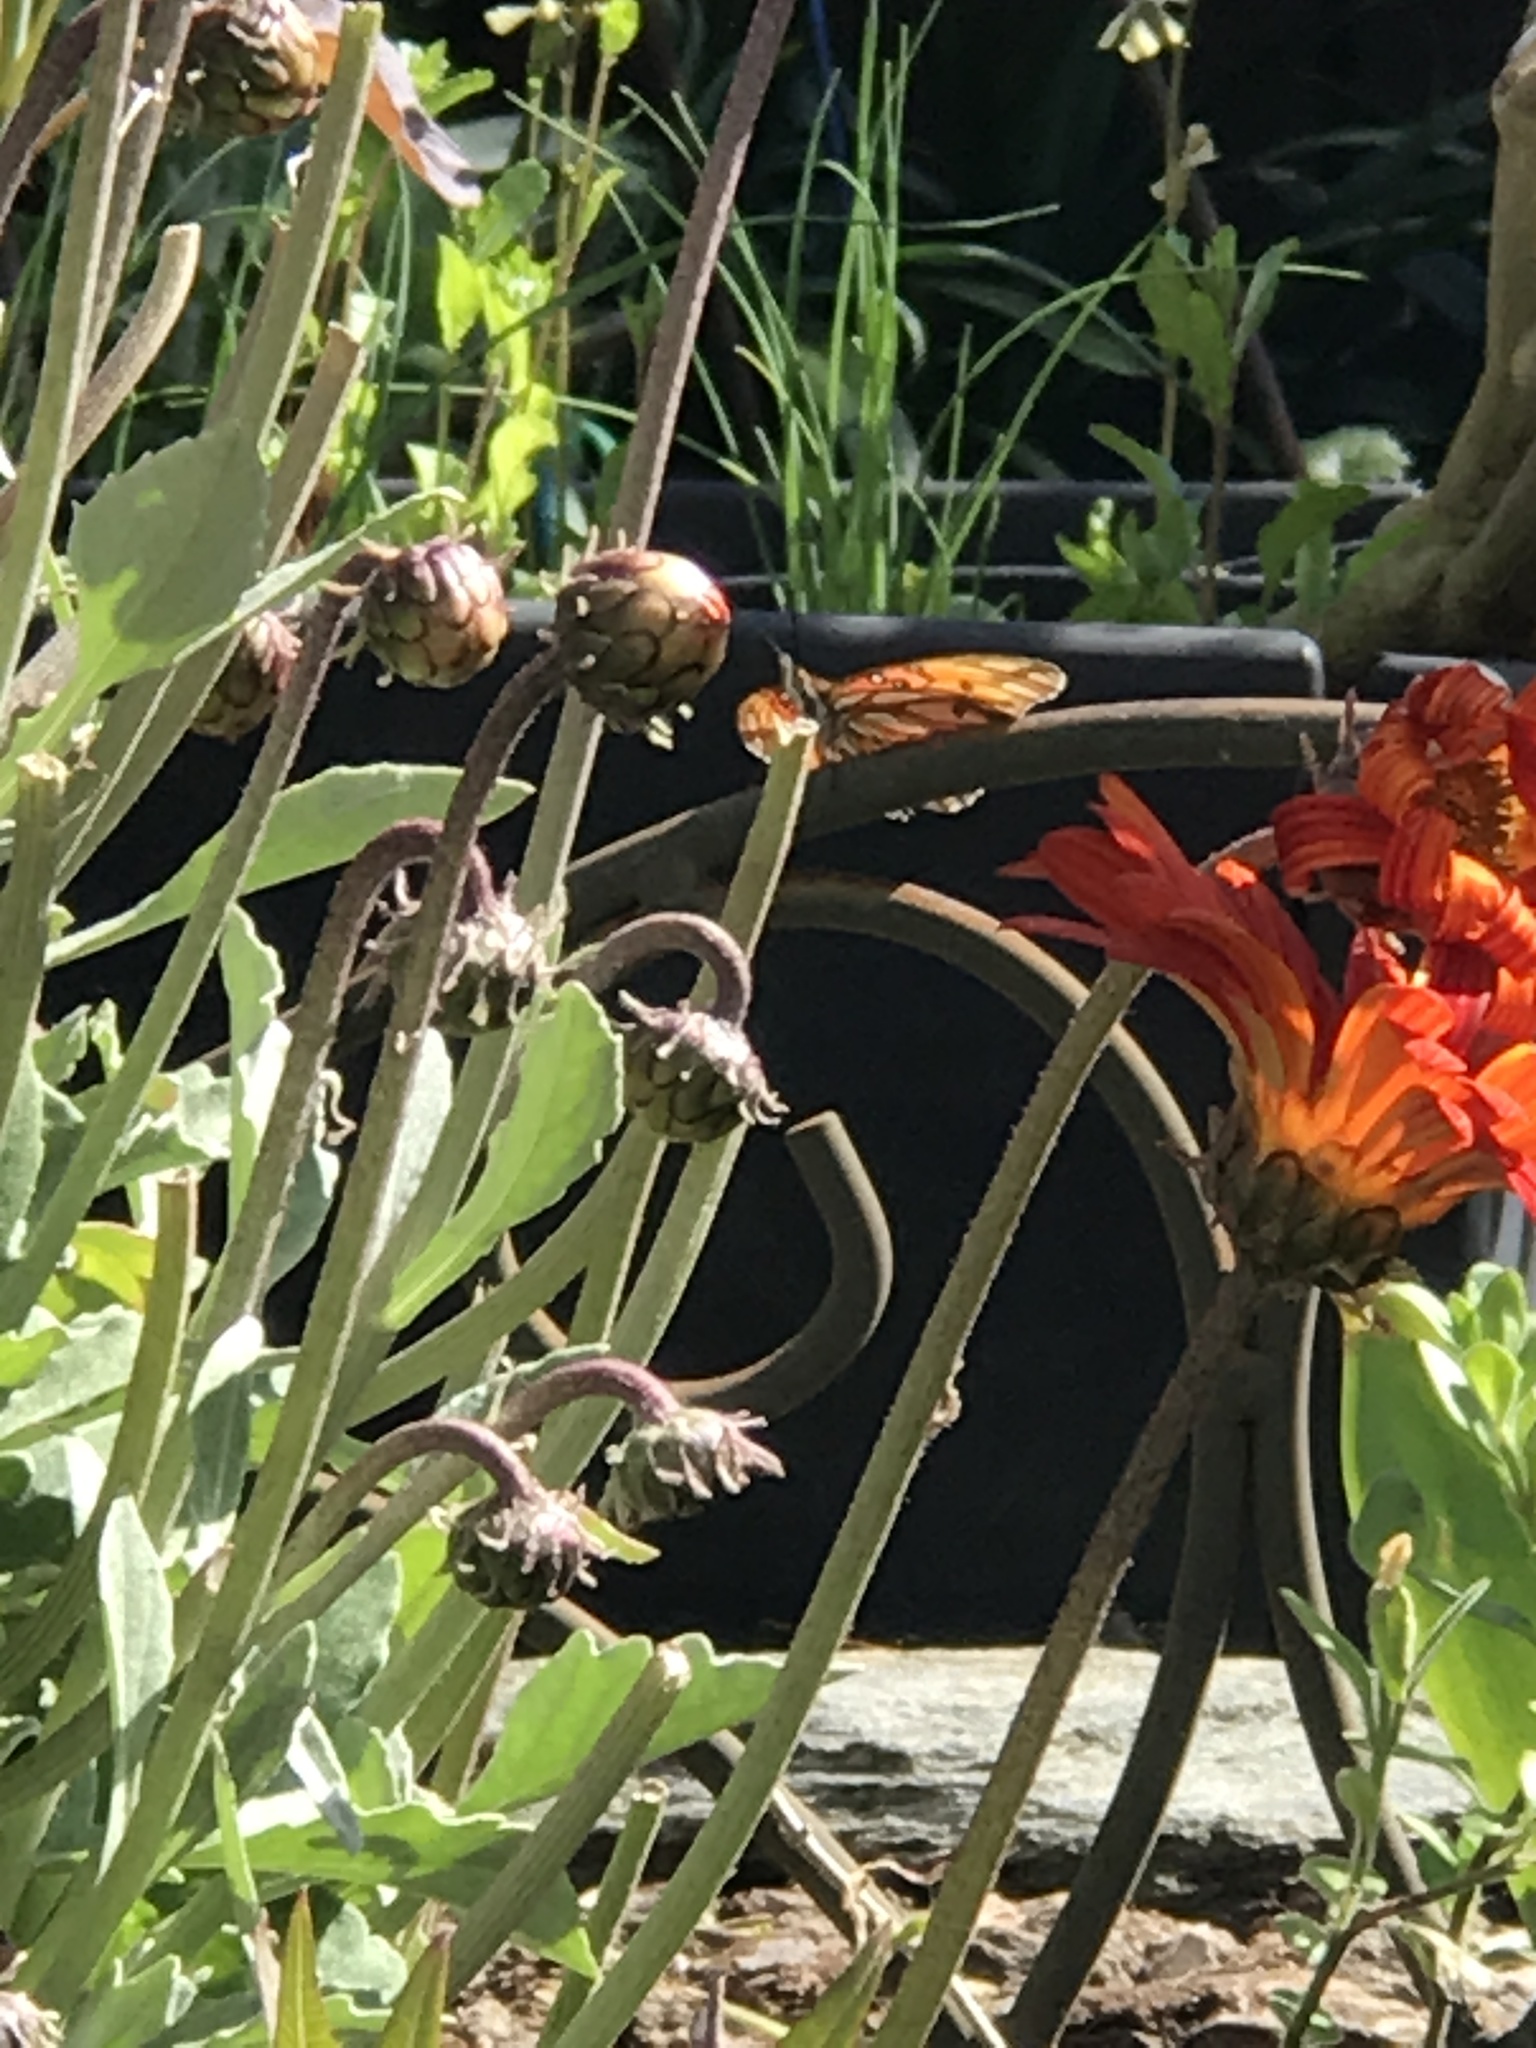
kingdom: Animalia
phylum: Arthropoda
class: Insecta
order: Lepidoptera
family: Nymphalidae
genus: Dione
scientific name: Dione vanillae
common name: Gulf fritillary
